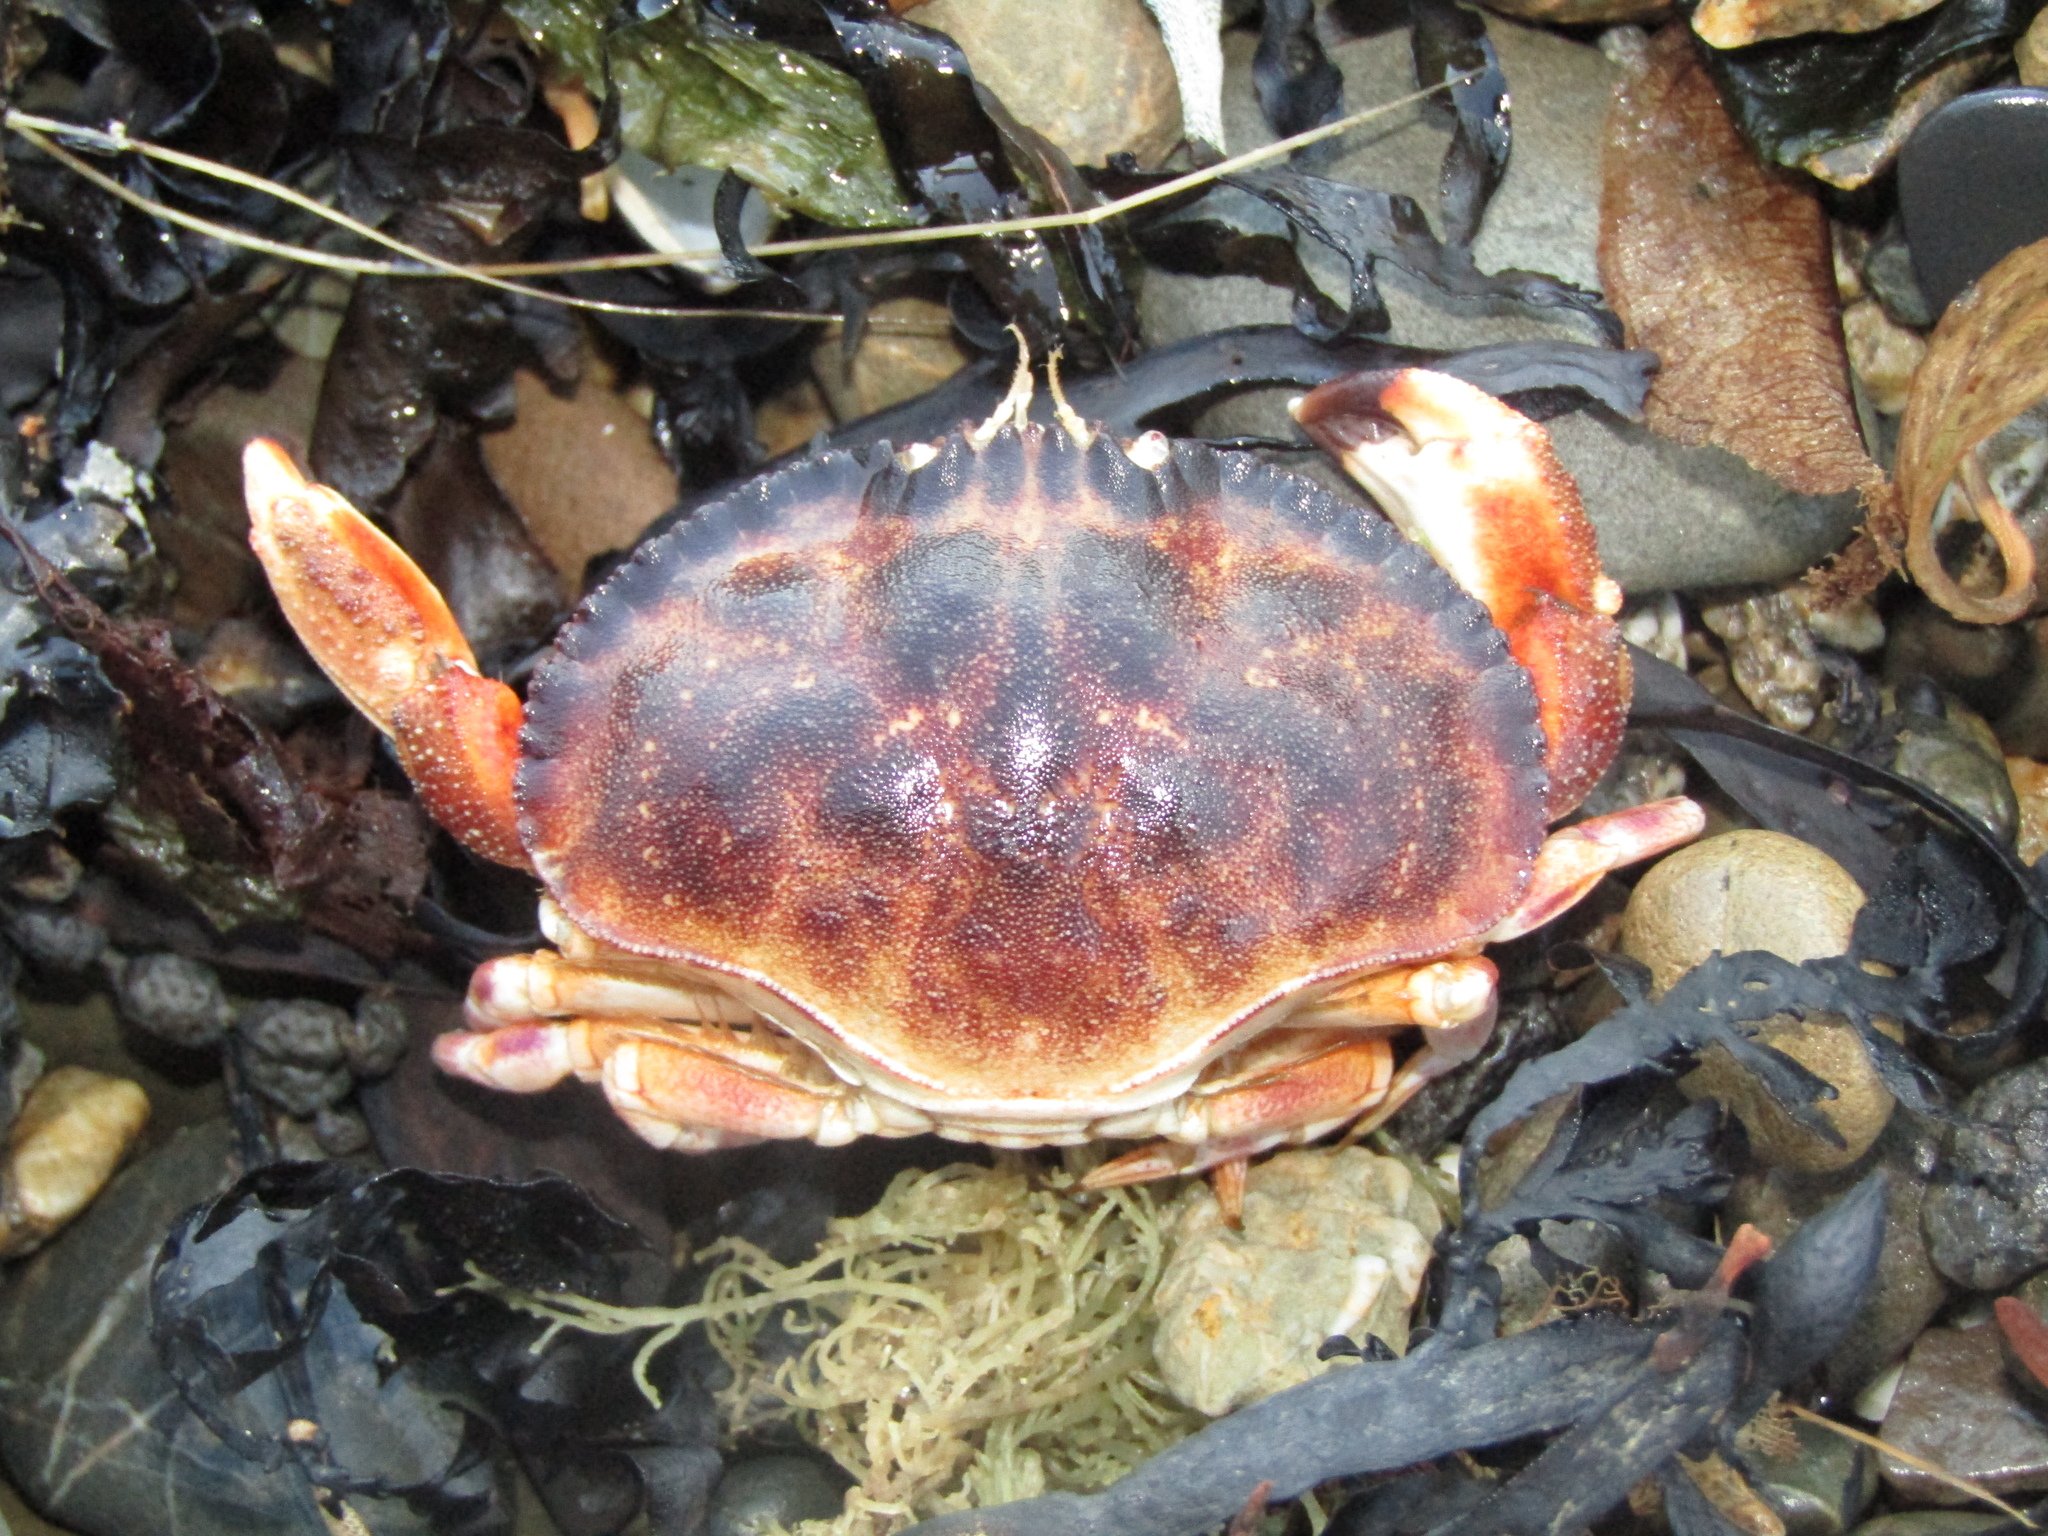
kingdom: Animalia
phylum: Arthropoda
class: Malacostraca
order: Decapoda
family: Cancridae
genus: Metacarcinus
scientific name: Metacarcinus novaezelandiae
